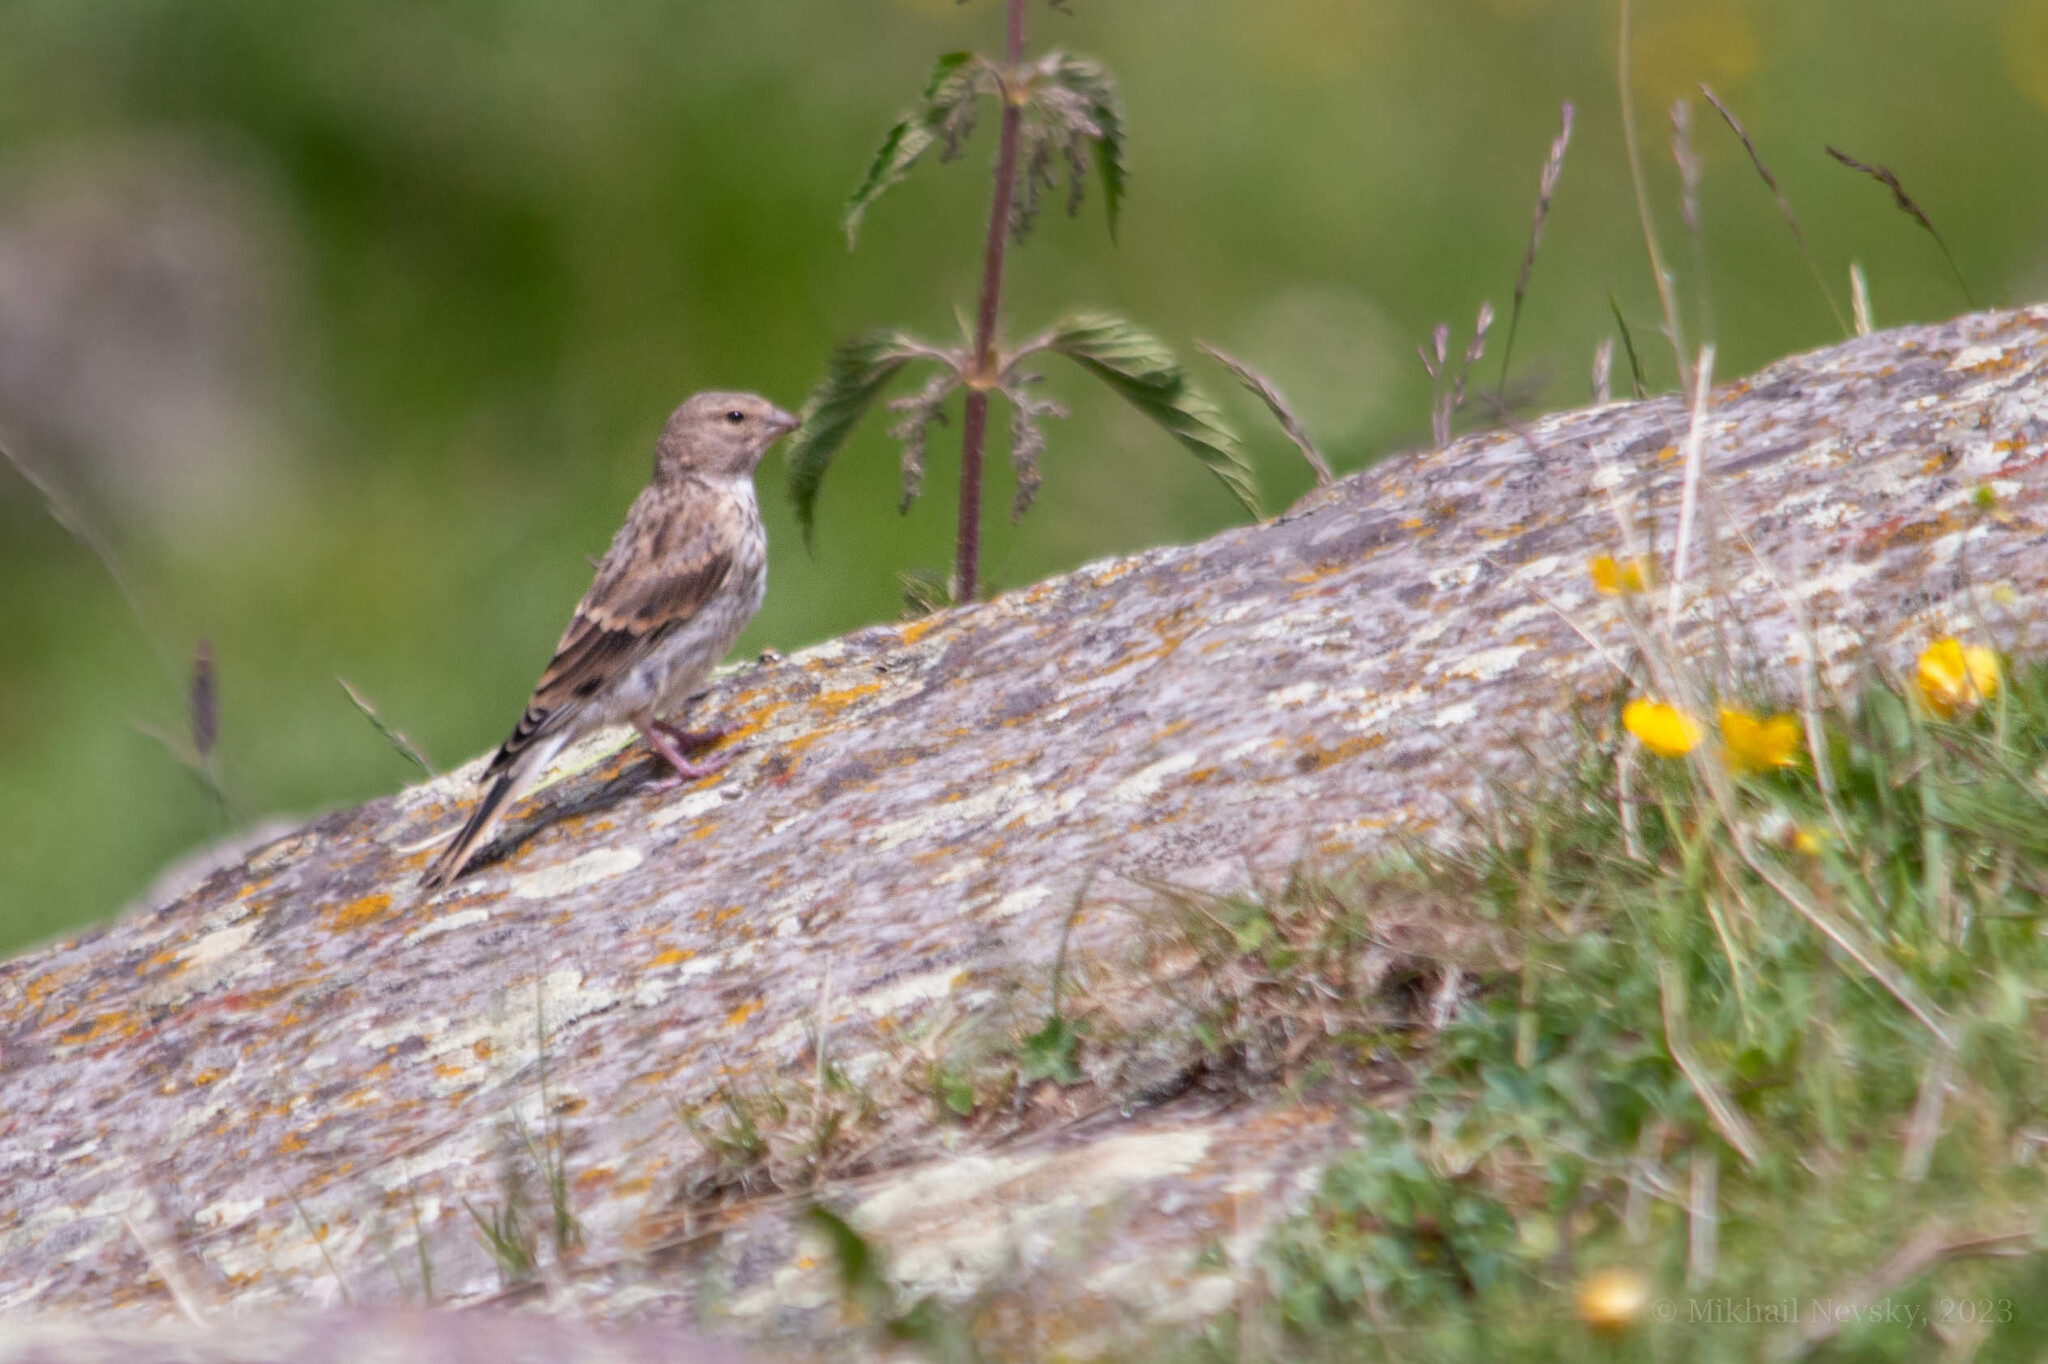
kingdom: Animalia
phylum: Chordata
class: Aves
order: Passeriformes
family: Fringillidae
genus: Linaria
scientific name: Linaria cannabina
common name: Common linnet
